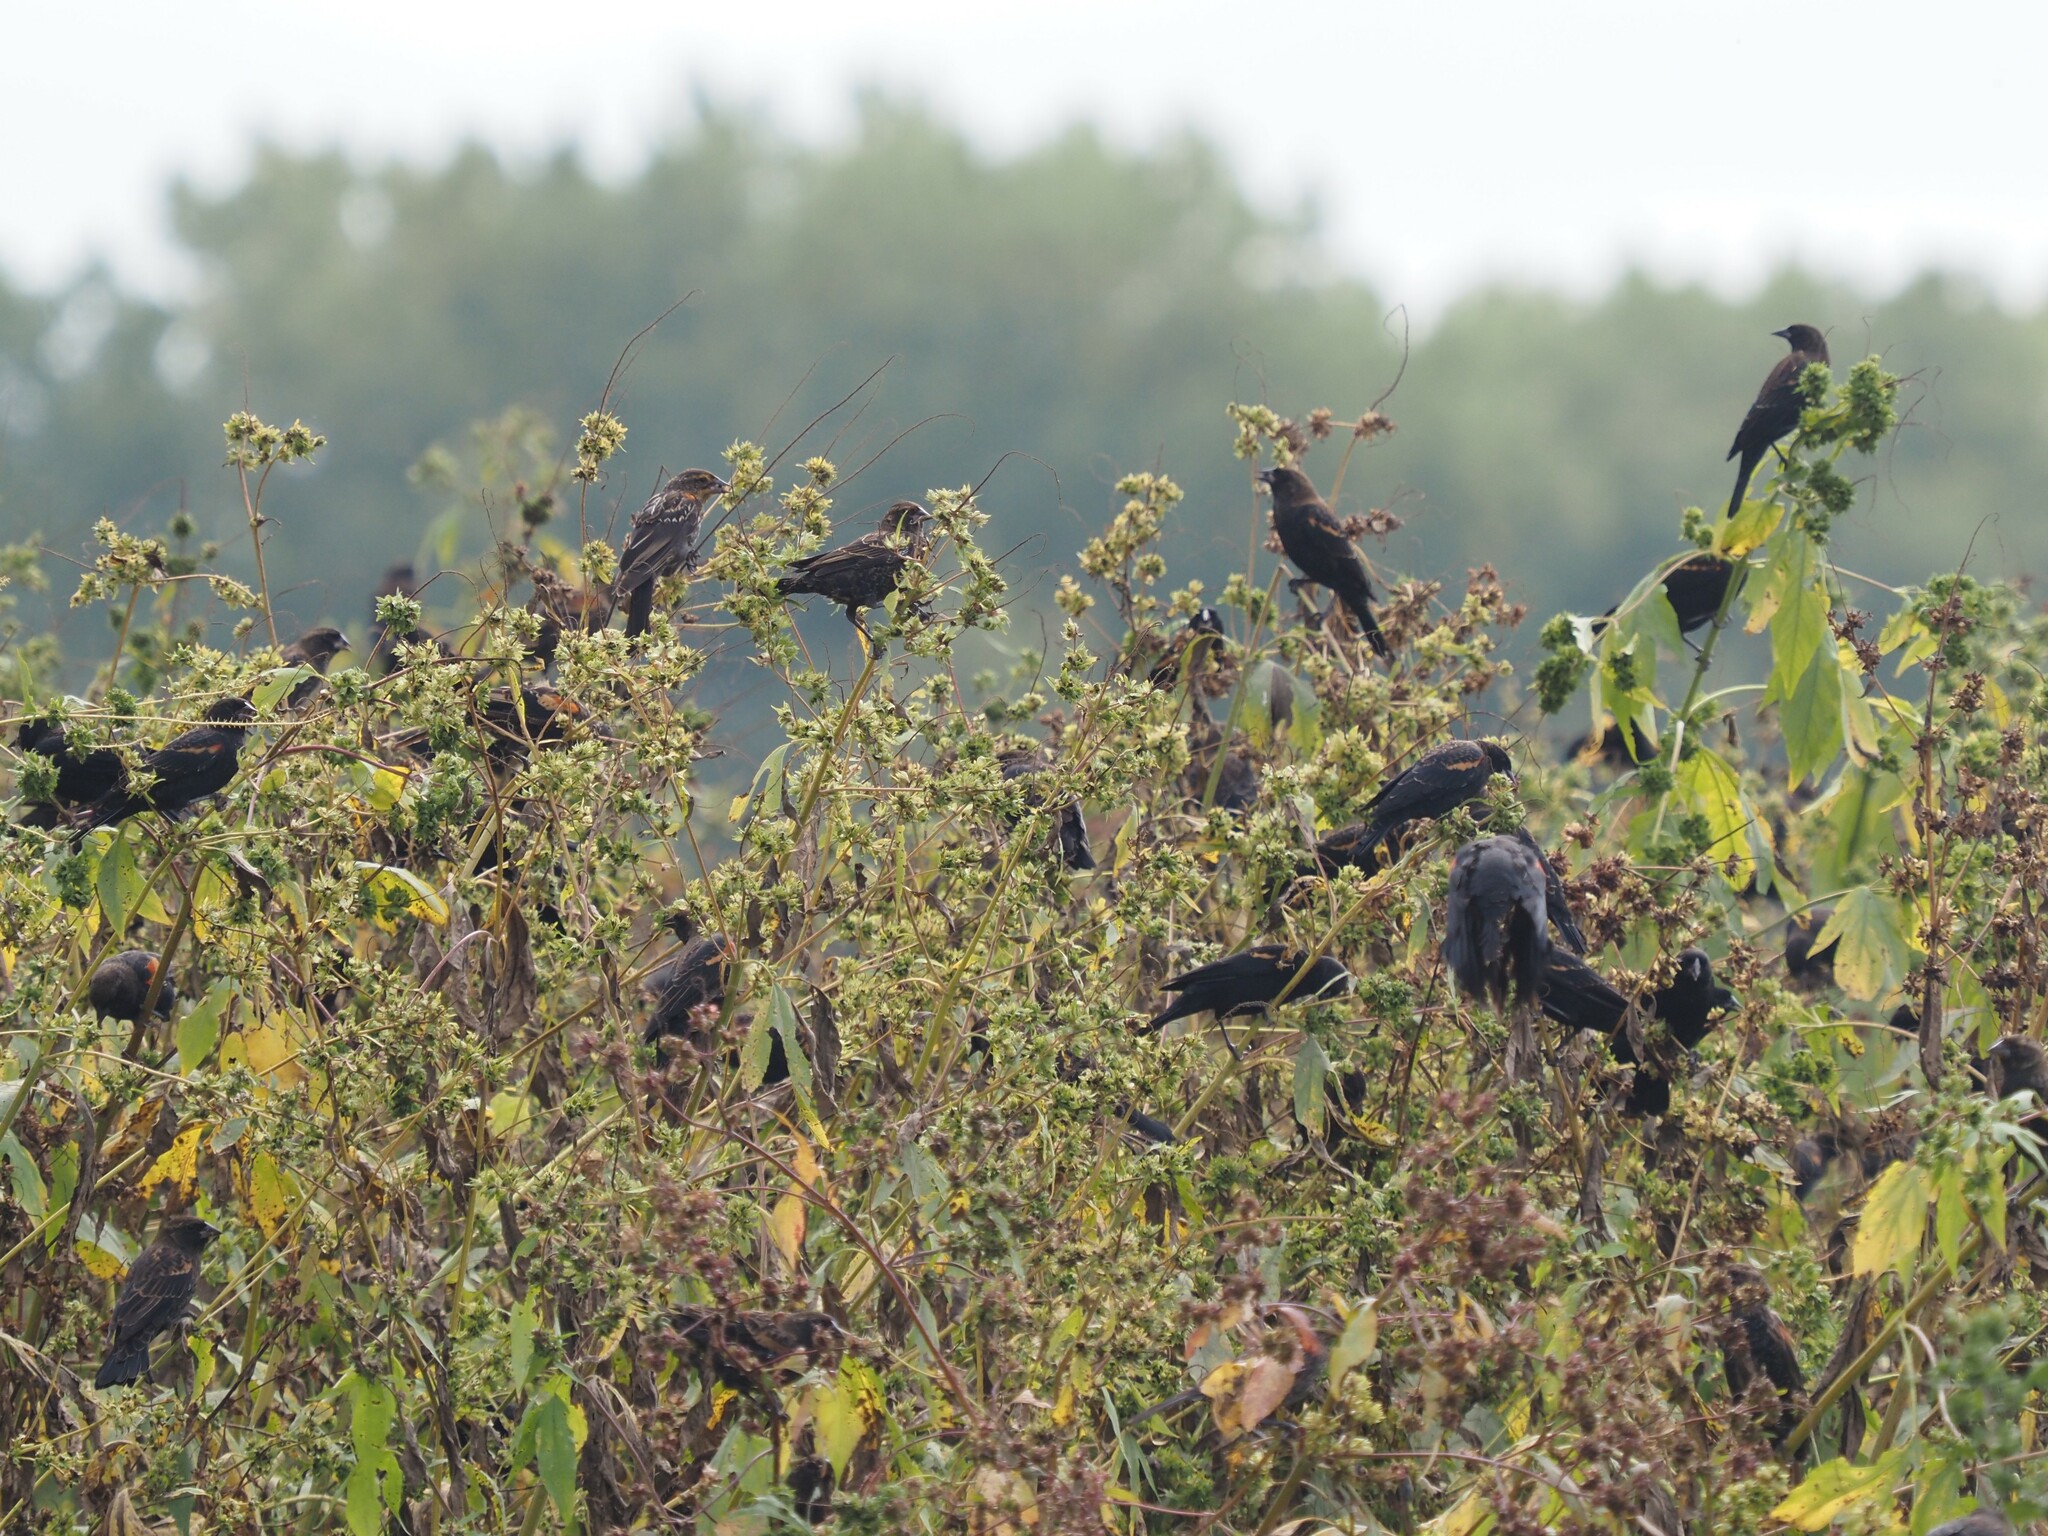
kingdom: Animalia
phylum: Chordata
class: Aves
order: Passeriformes
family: Icteridae
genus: Agelaius
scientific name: Agelaius phoeniceus
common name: Red-winged blackbird
